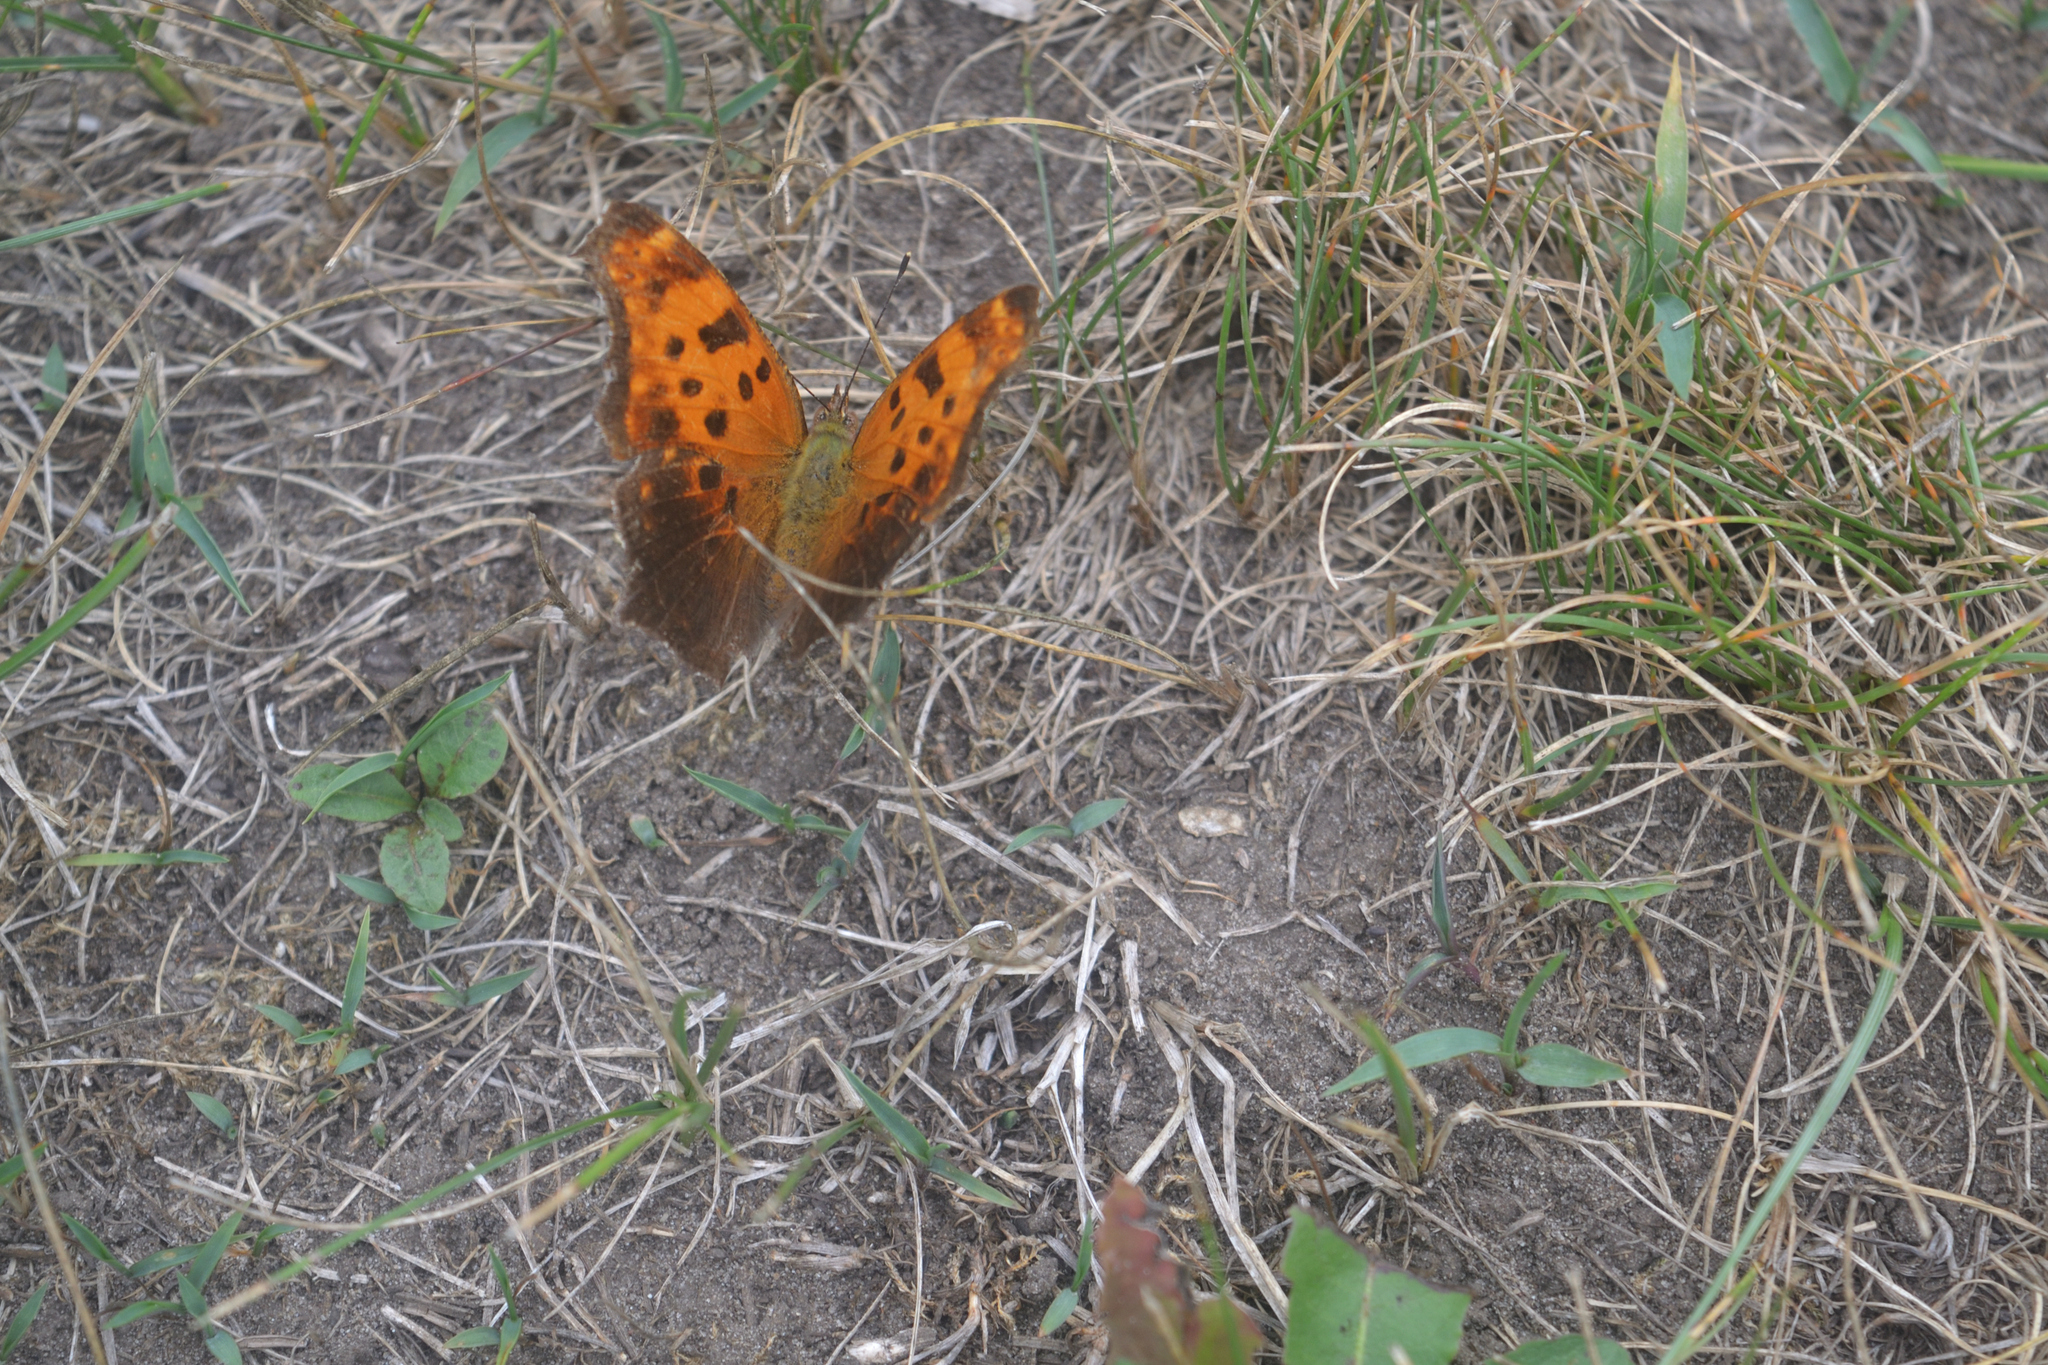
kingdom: Animalia
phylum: Arthropoda
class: Insecta
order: Lepidoptera
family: Nymphalidae
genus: Polygonia
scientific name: Polygonia comma
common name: Eastern comma
